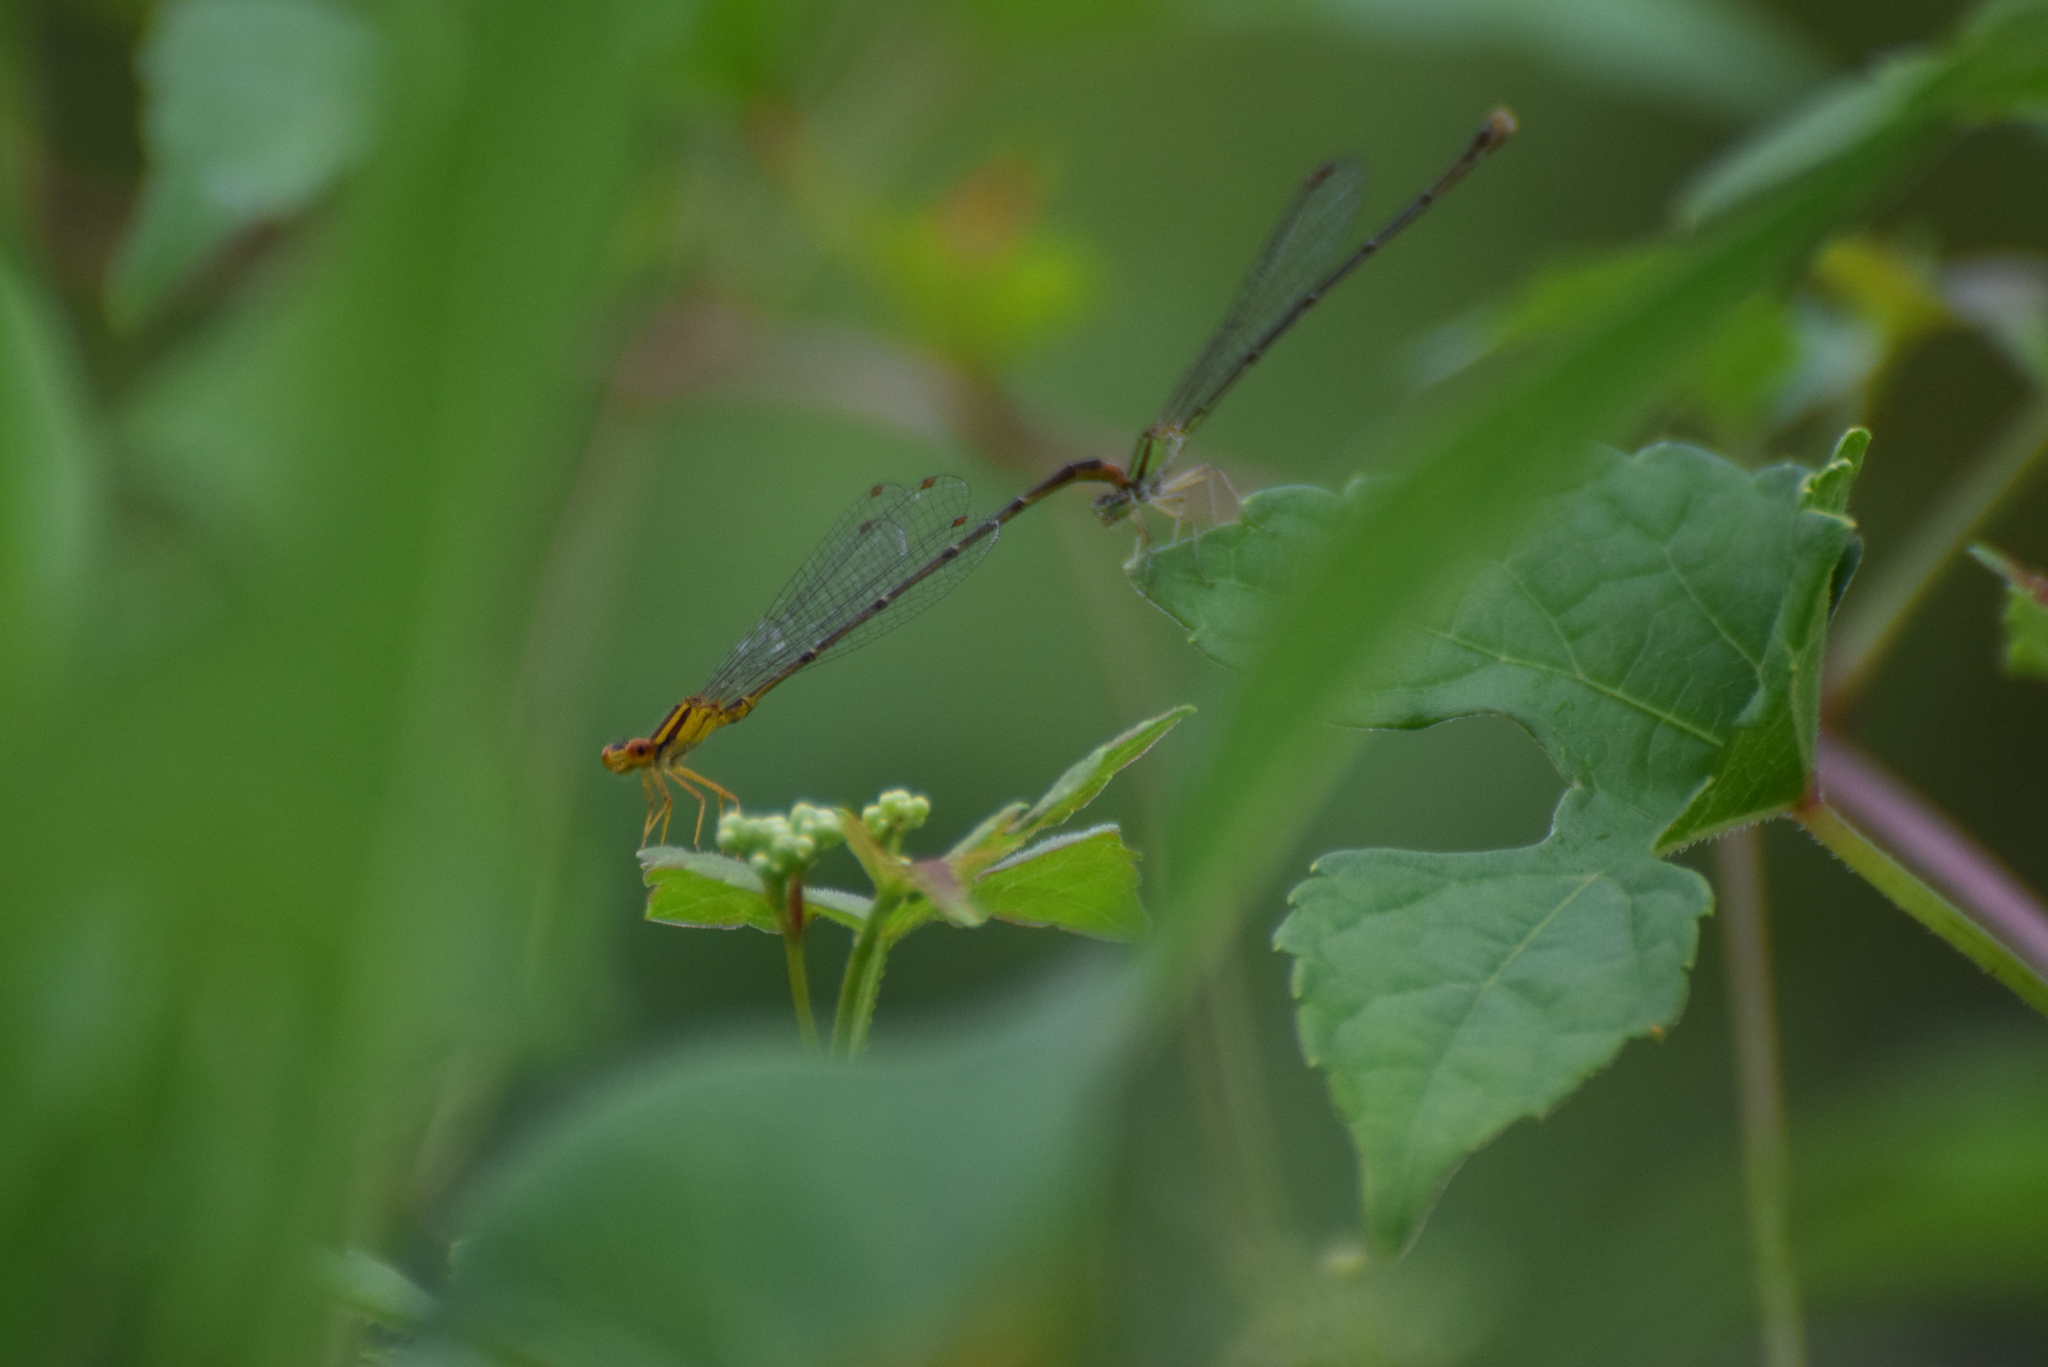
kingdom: Animalia
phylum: Arthropoda
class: Insecta
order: Odonata
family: Coenagrionidae
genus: Enallagma
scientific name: Enallagma signatum
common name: Orange bluet
